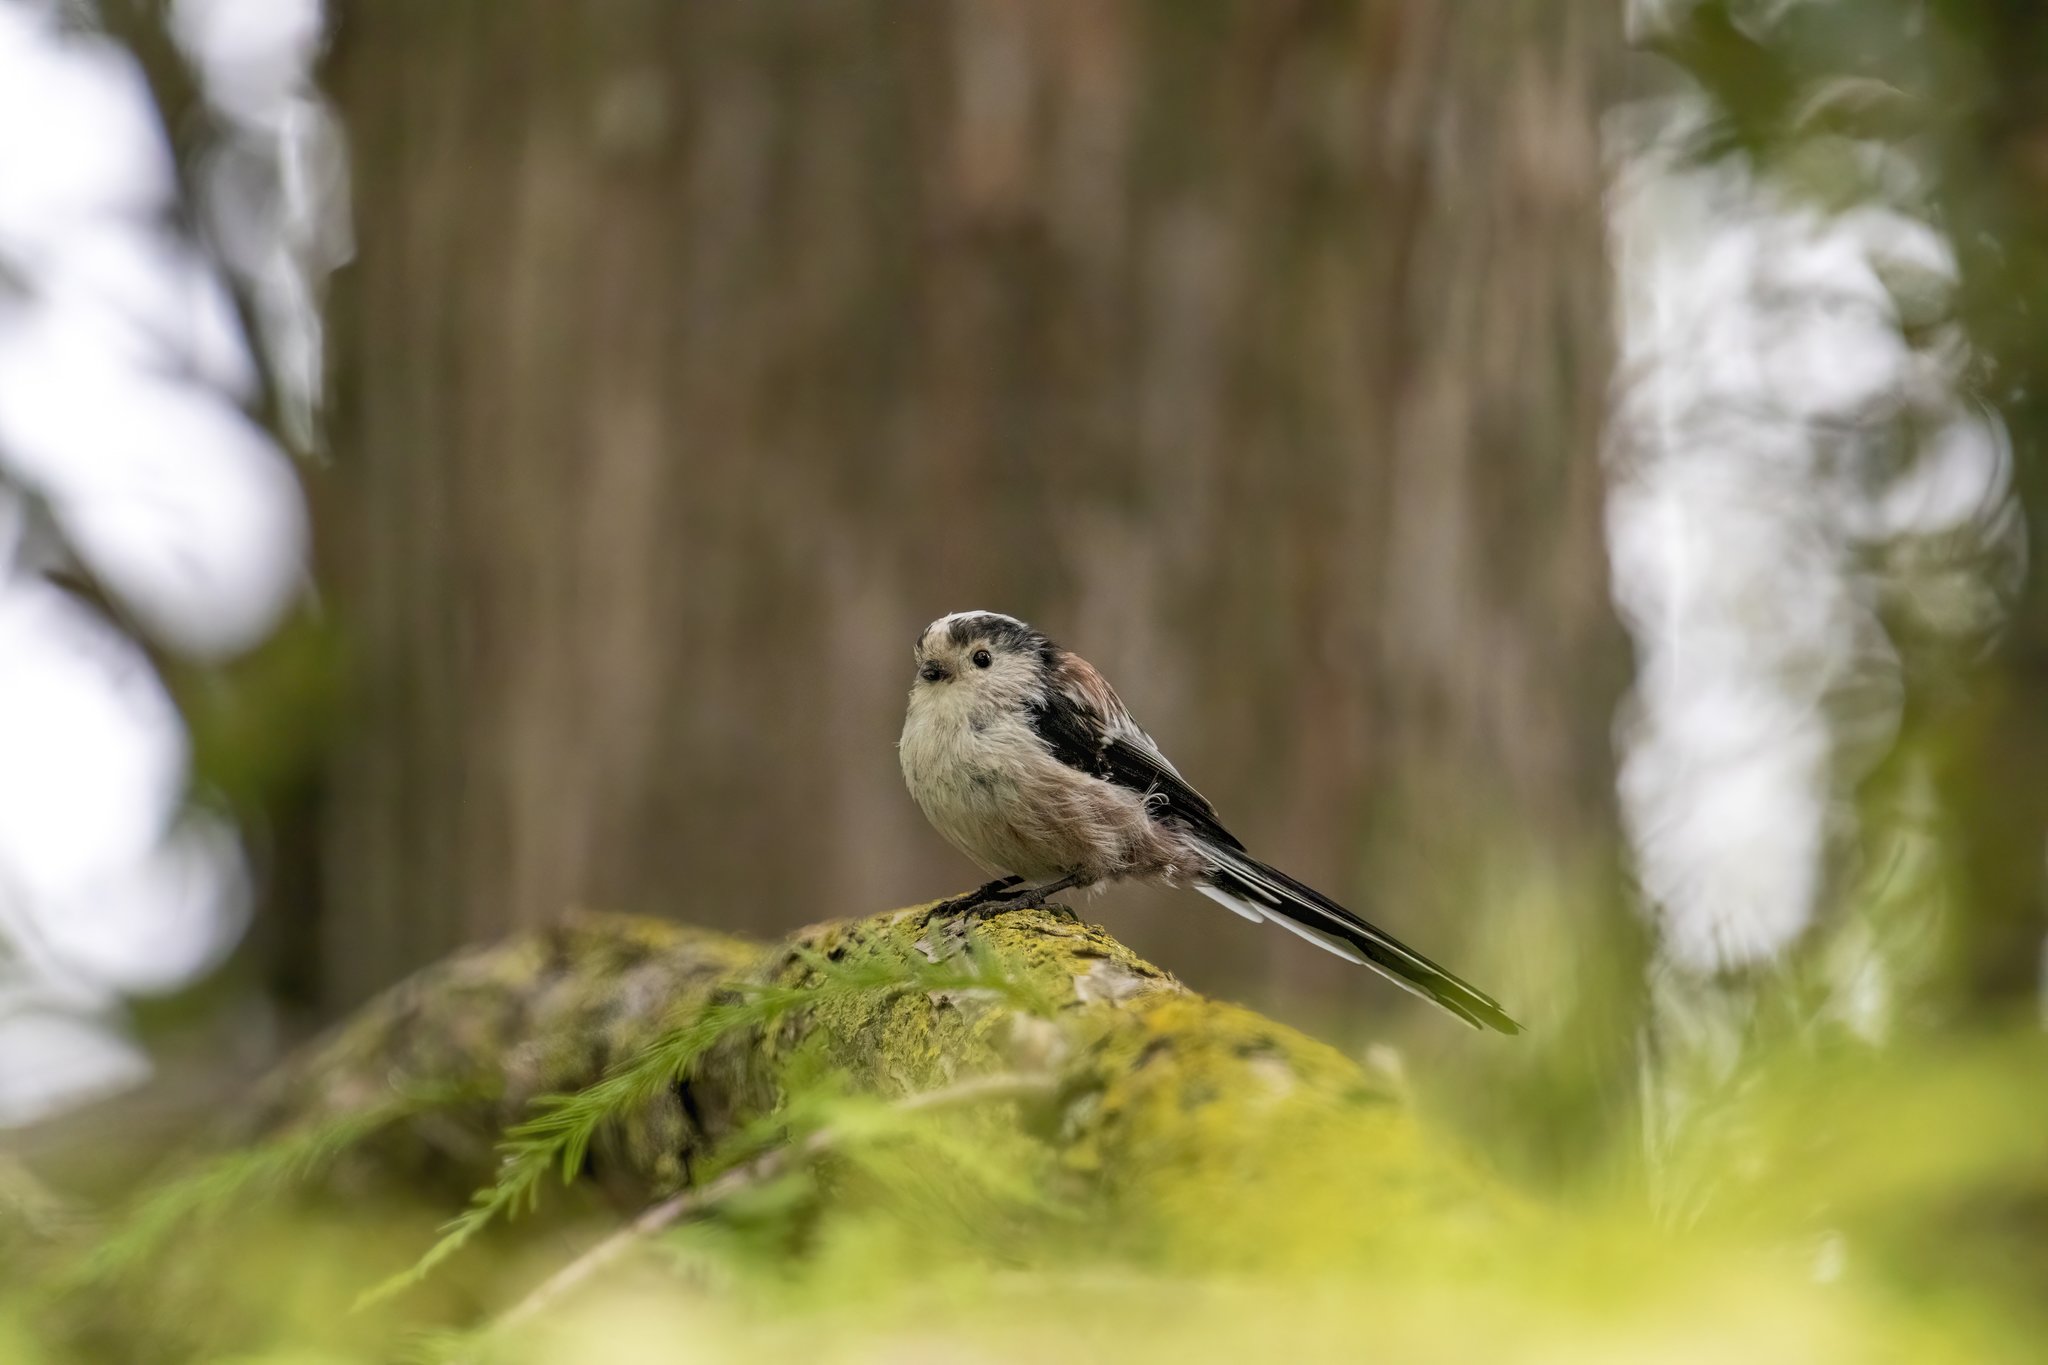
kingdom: Animalia
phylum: Chordata
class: Aves
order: Passeriformes
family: Aegithalidae
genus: Aegithalos
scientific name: Aegithalos caudatus
